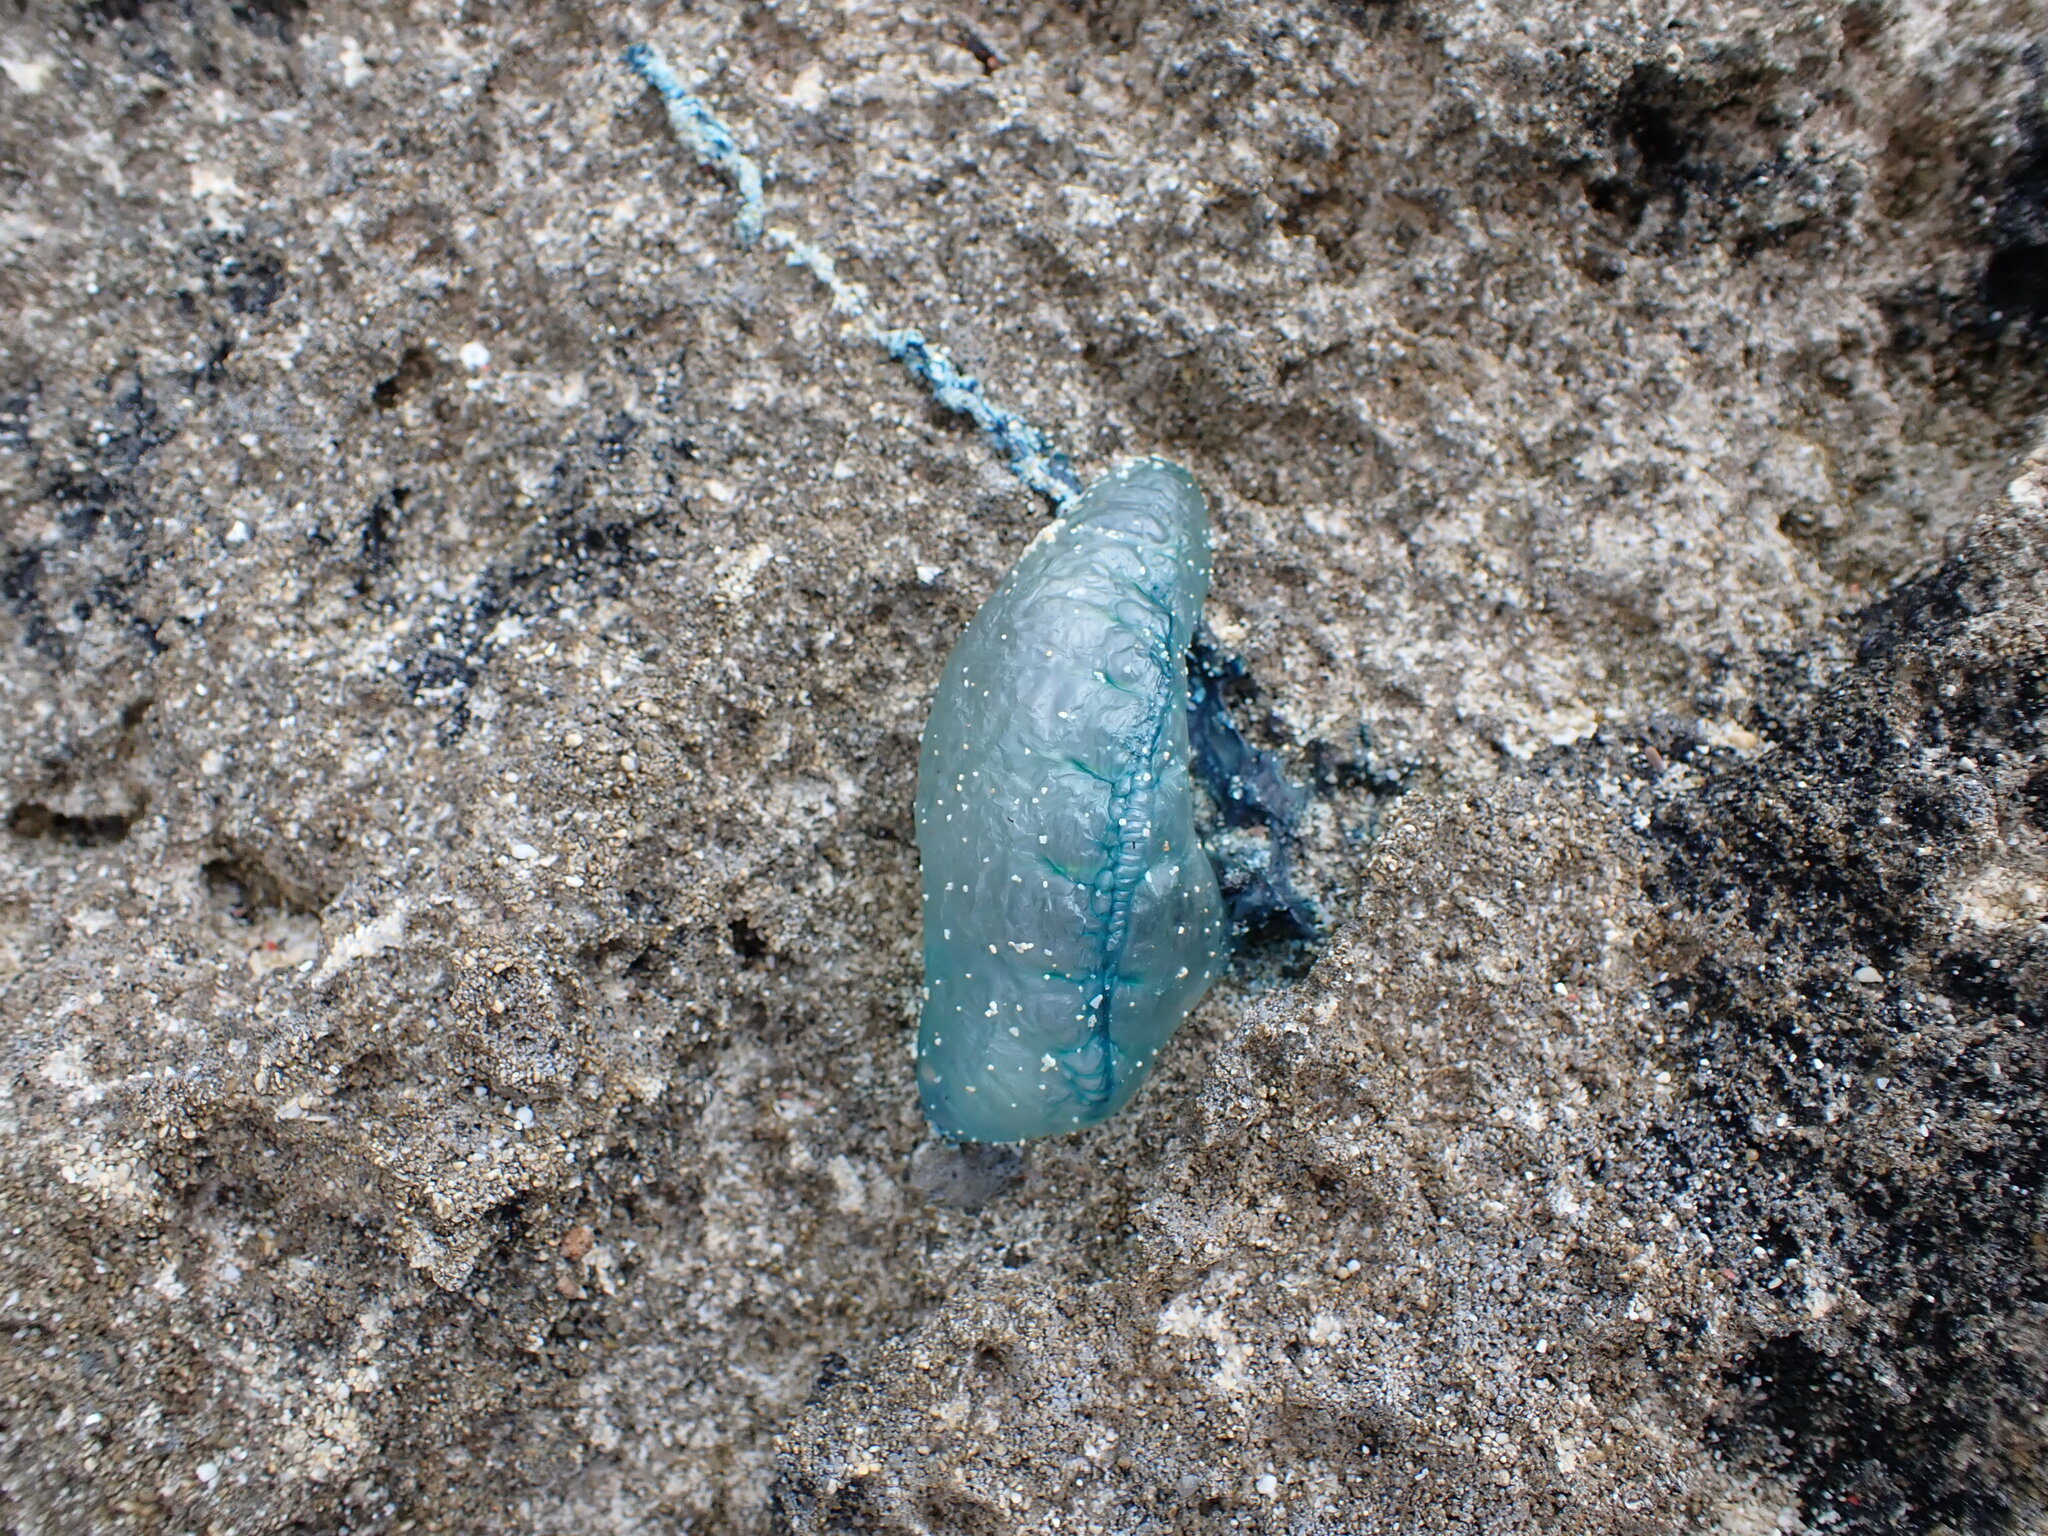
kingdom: Animalia
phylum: Cnidaria
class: Hydrozoa
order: Siphonophorae
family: Physaliidae
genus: Physalia
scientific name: Physalia physalis
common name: Portuguese man-of-war
